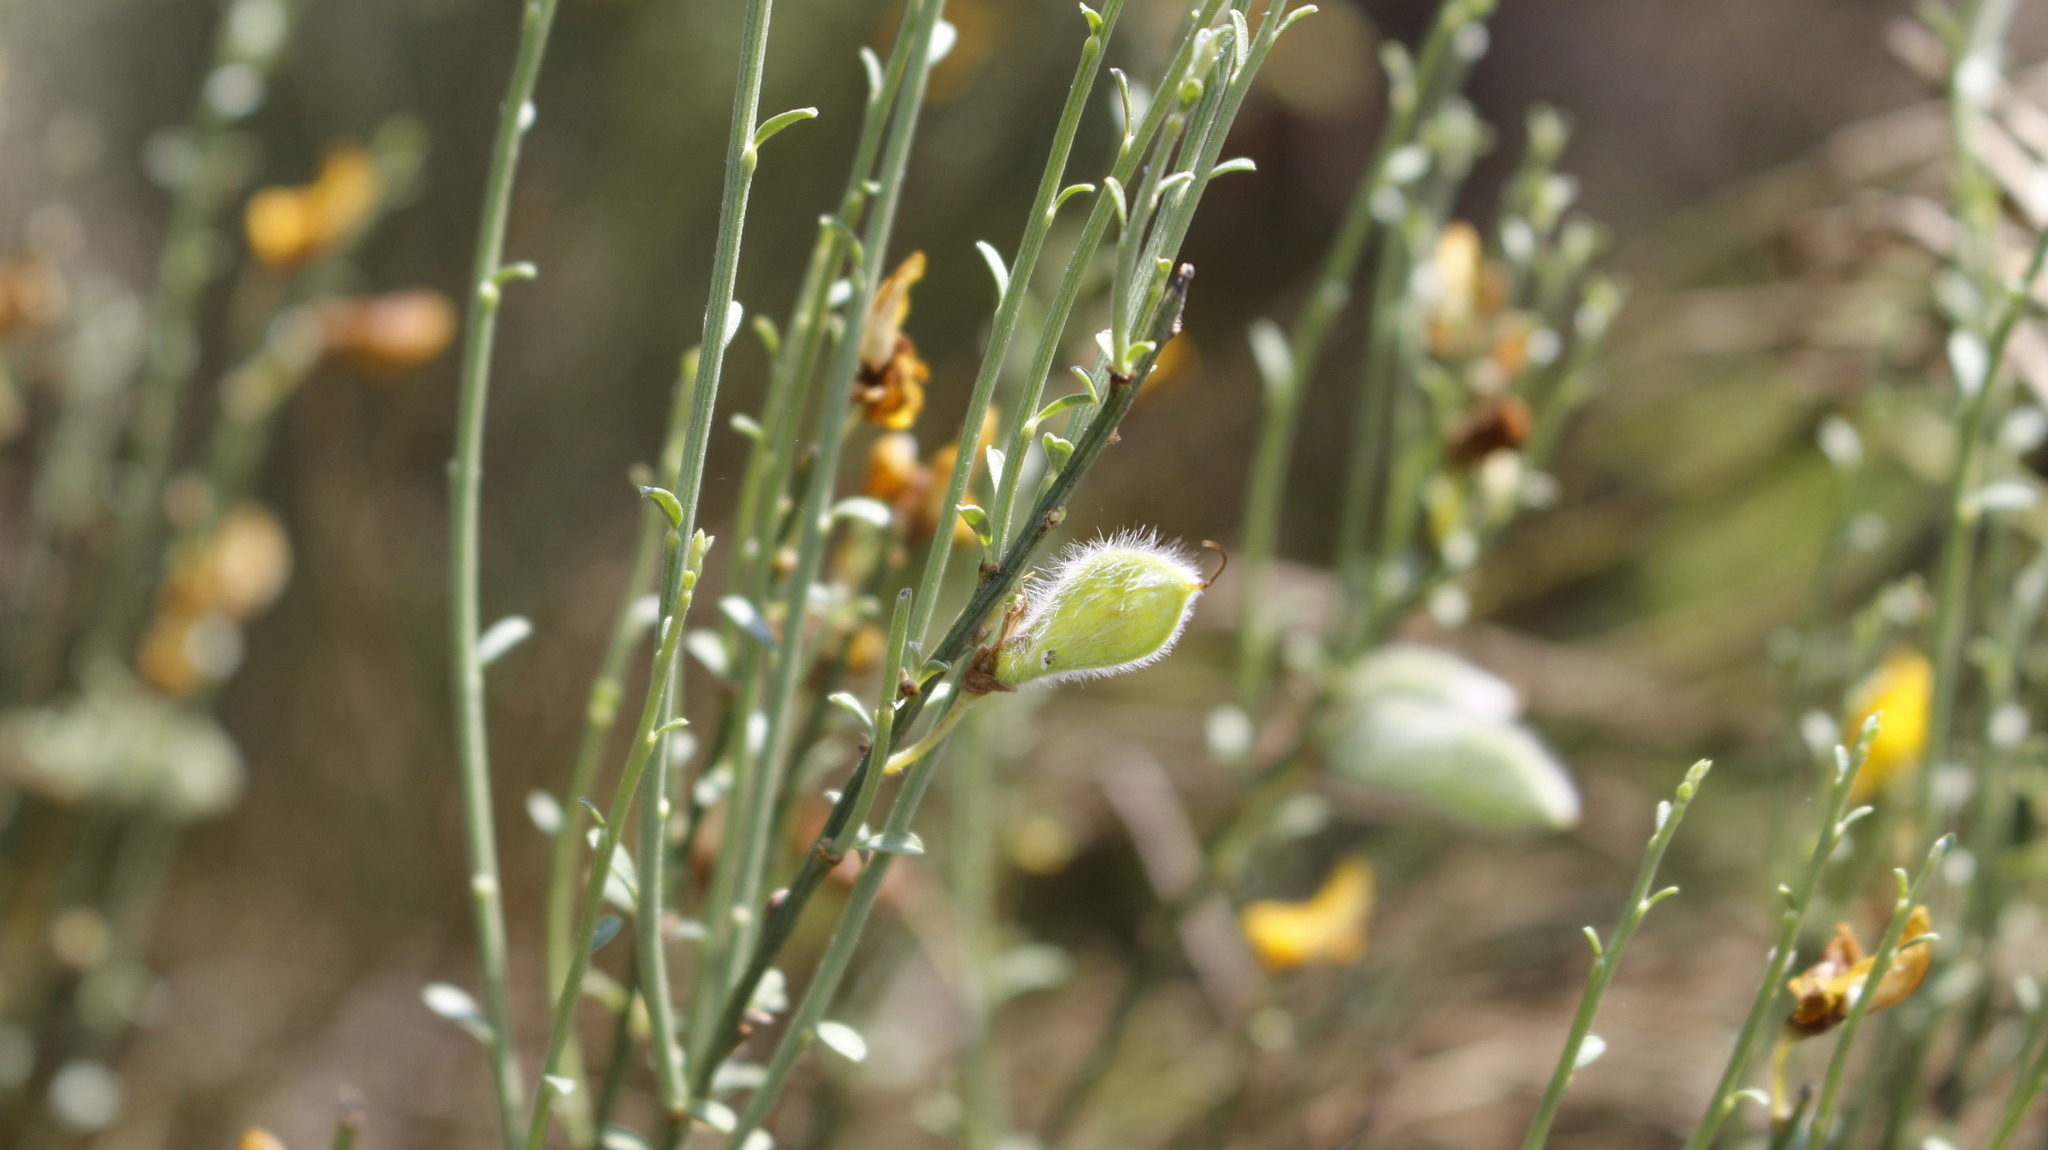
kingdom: Plantae
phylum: Tracheophyta
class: Magnoliopsida
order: Fabales
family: Fabaceae
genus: Cytisus
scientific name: Cytisus oromediterraneus
